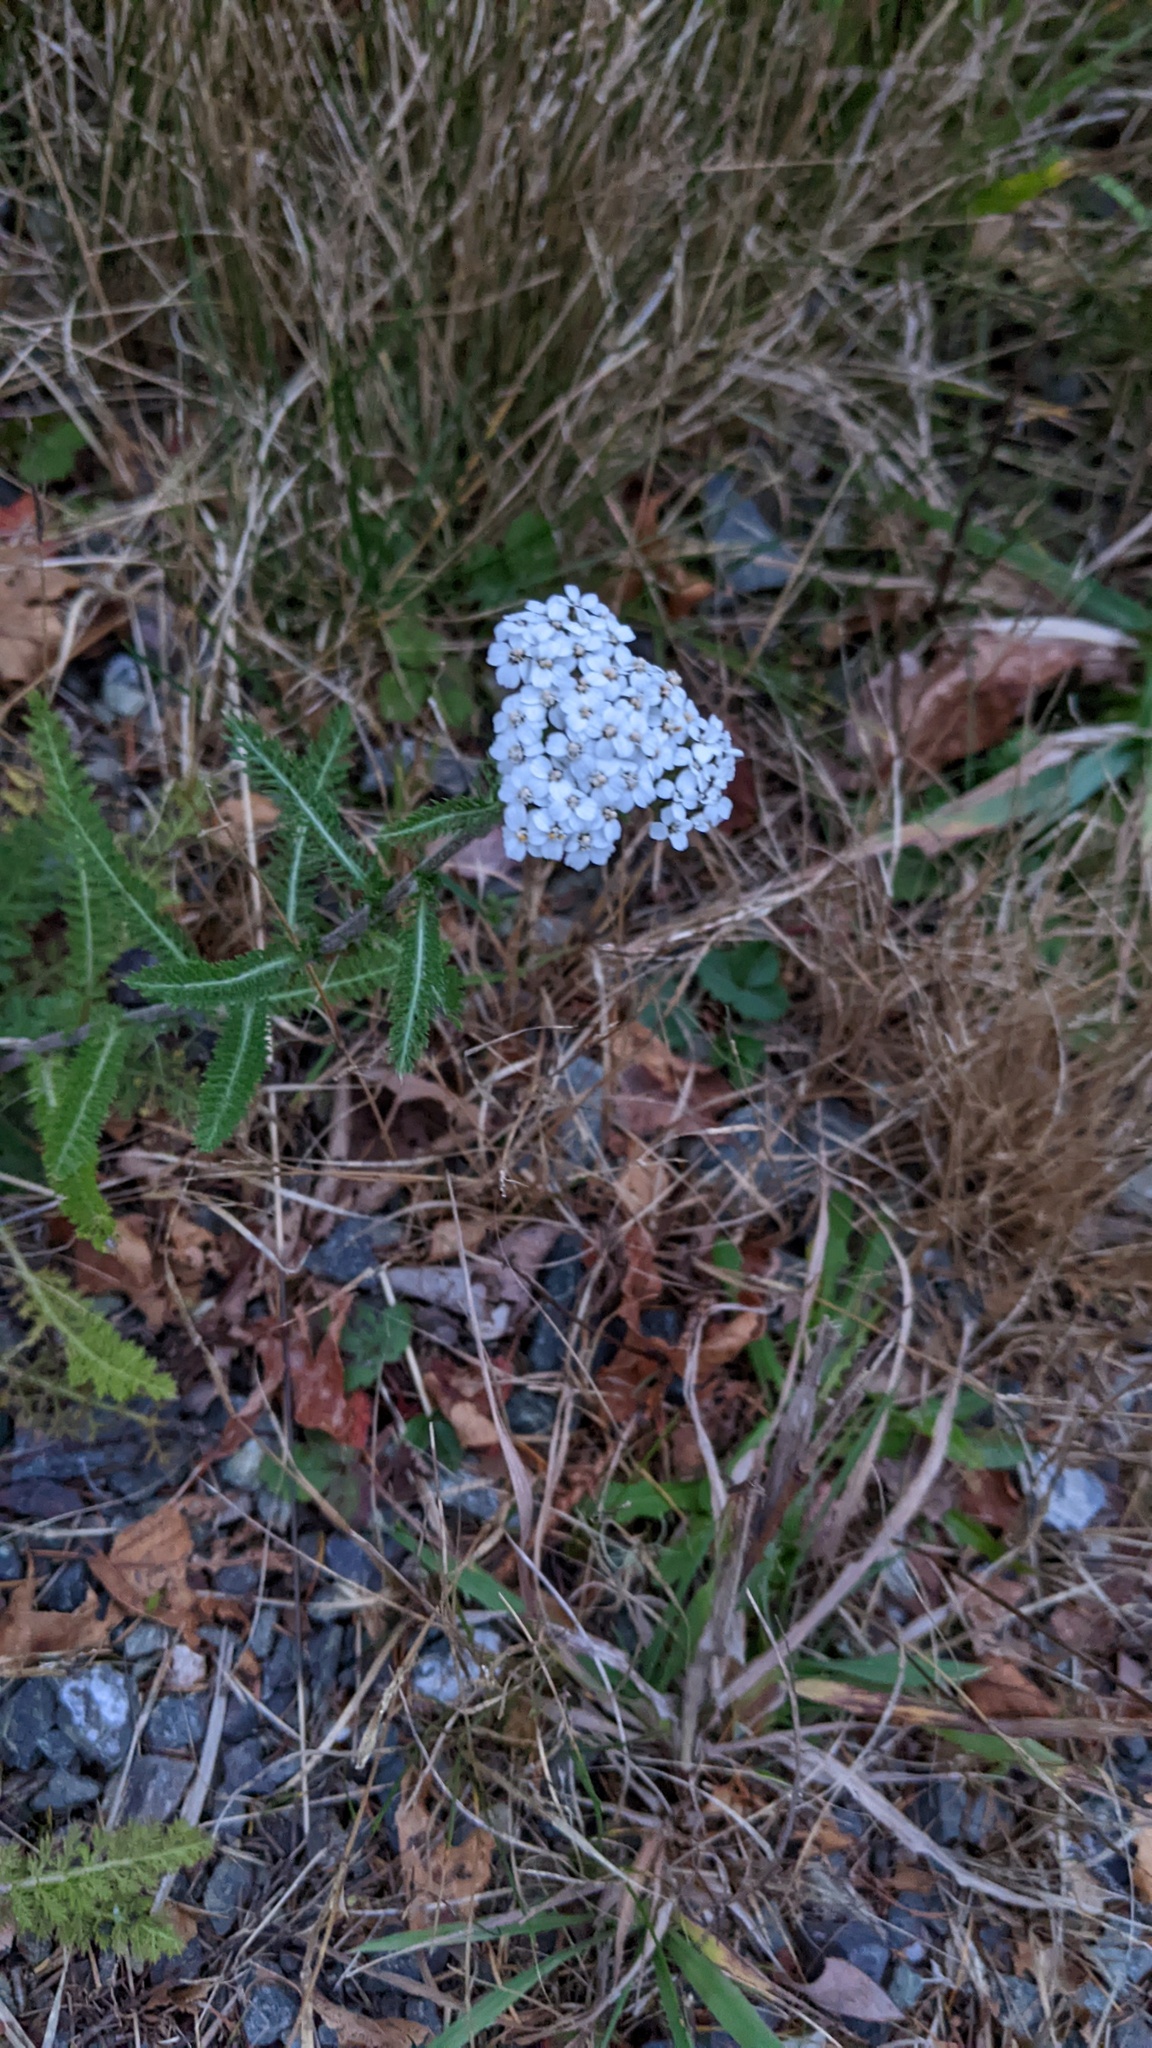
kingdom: Plantae
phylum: Tracheophyta
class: Magnoliopsida
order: Asterales
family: Asteraceae
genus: Achillea
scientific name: Achillea millefolium
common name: Yarrow
